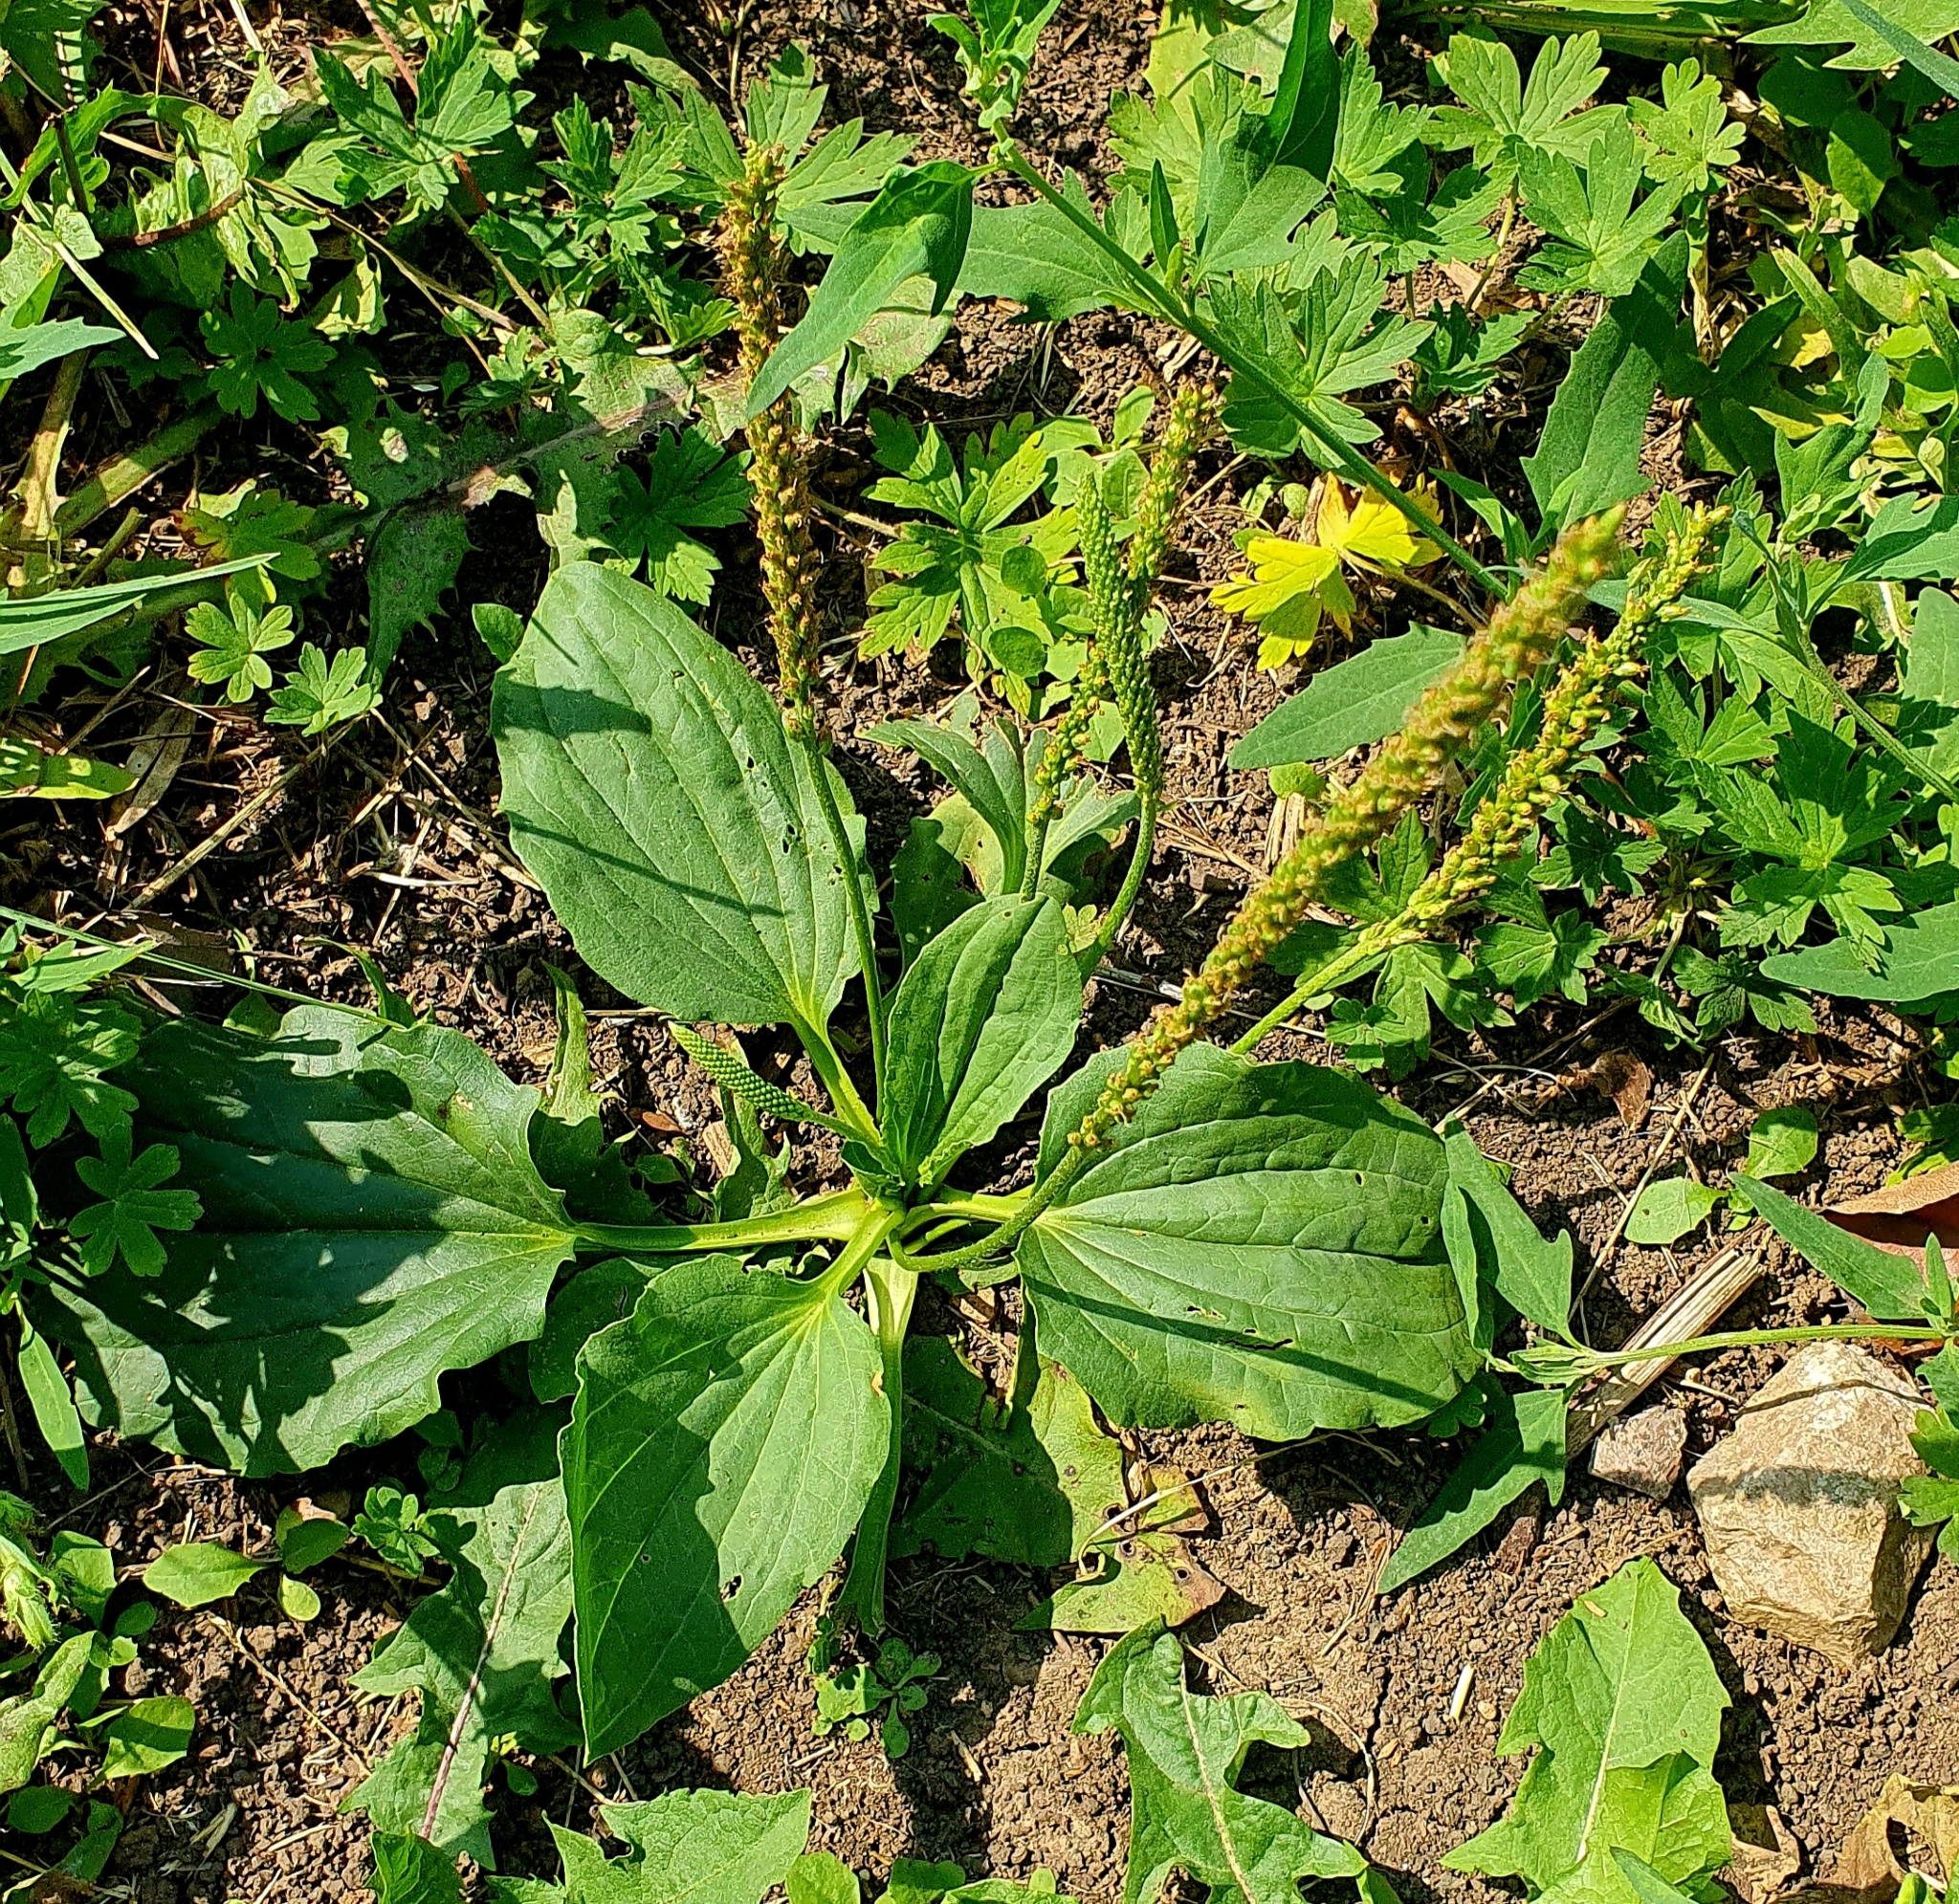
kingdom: Plantae
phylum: Tracheophyta
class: Magnoliopsida
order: Lamiales
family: Plantaginaceae
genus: Plantago
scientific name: Plantago major
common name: Common plantain
